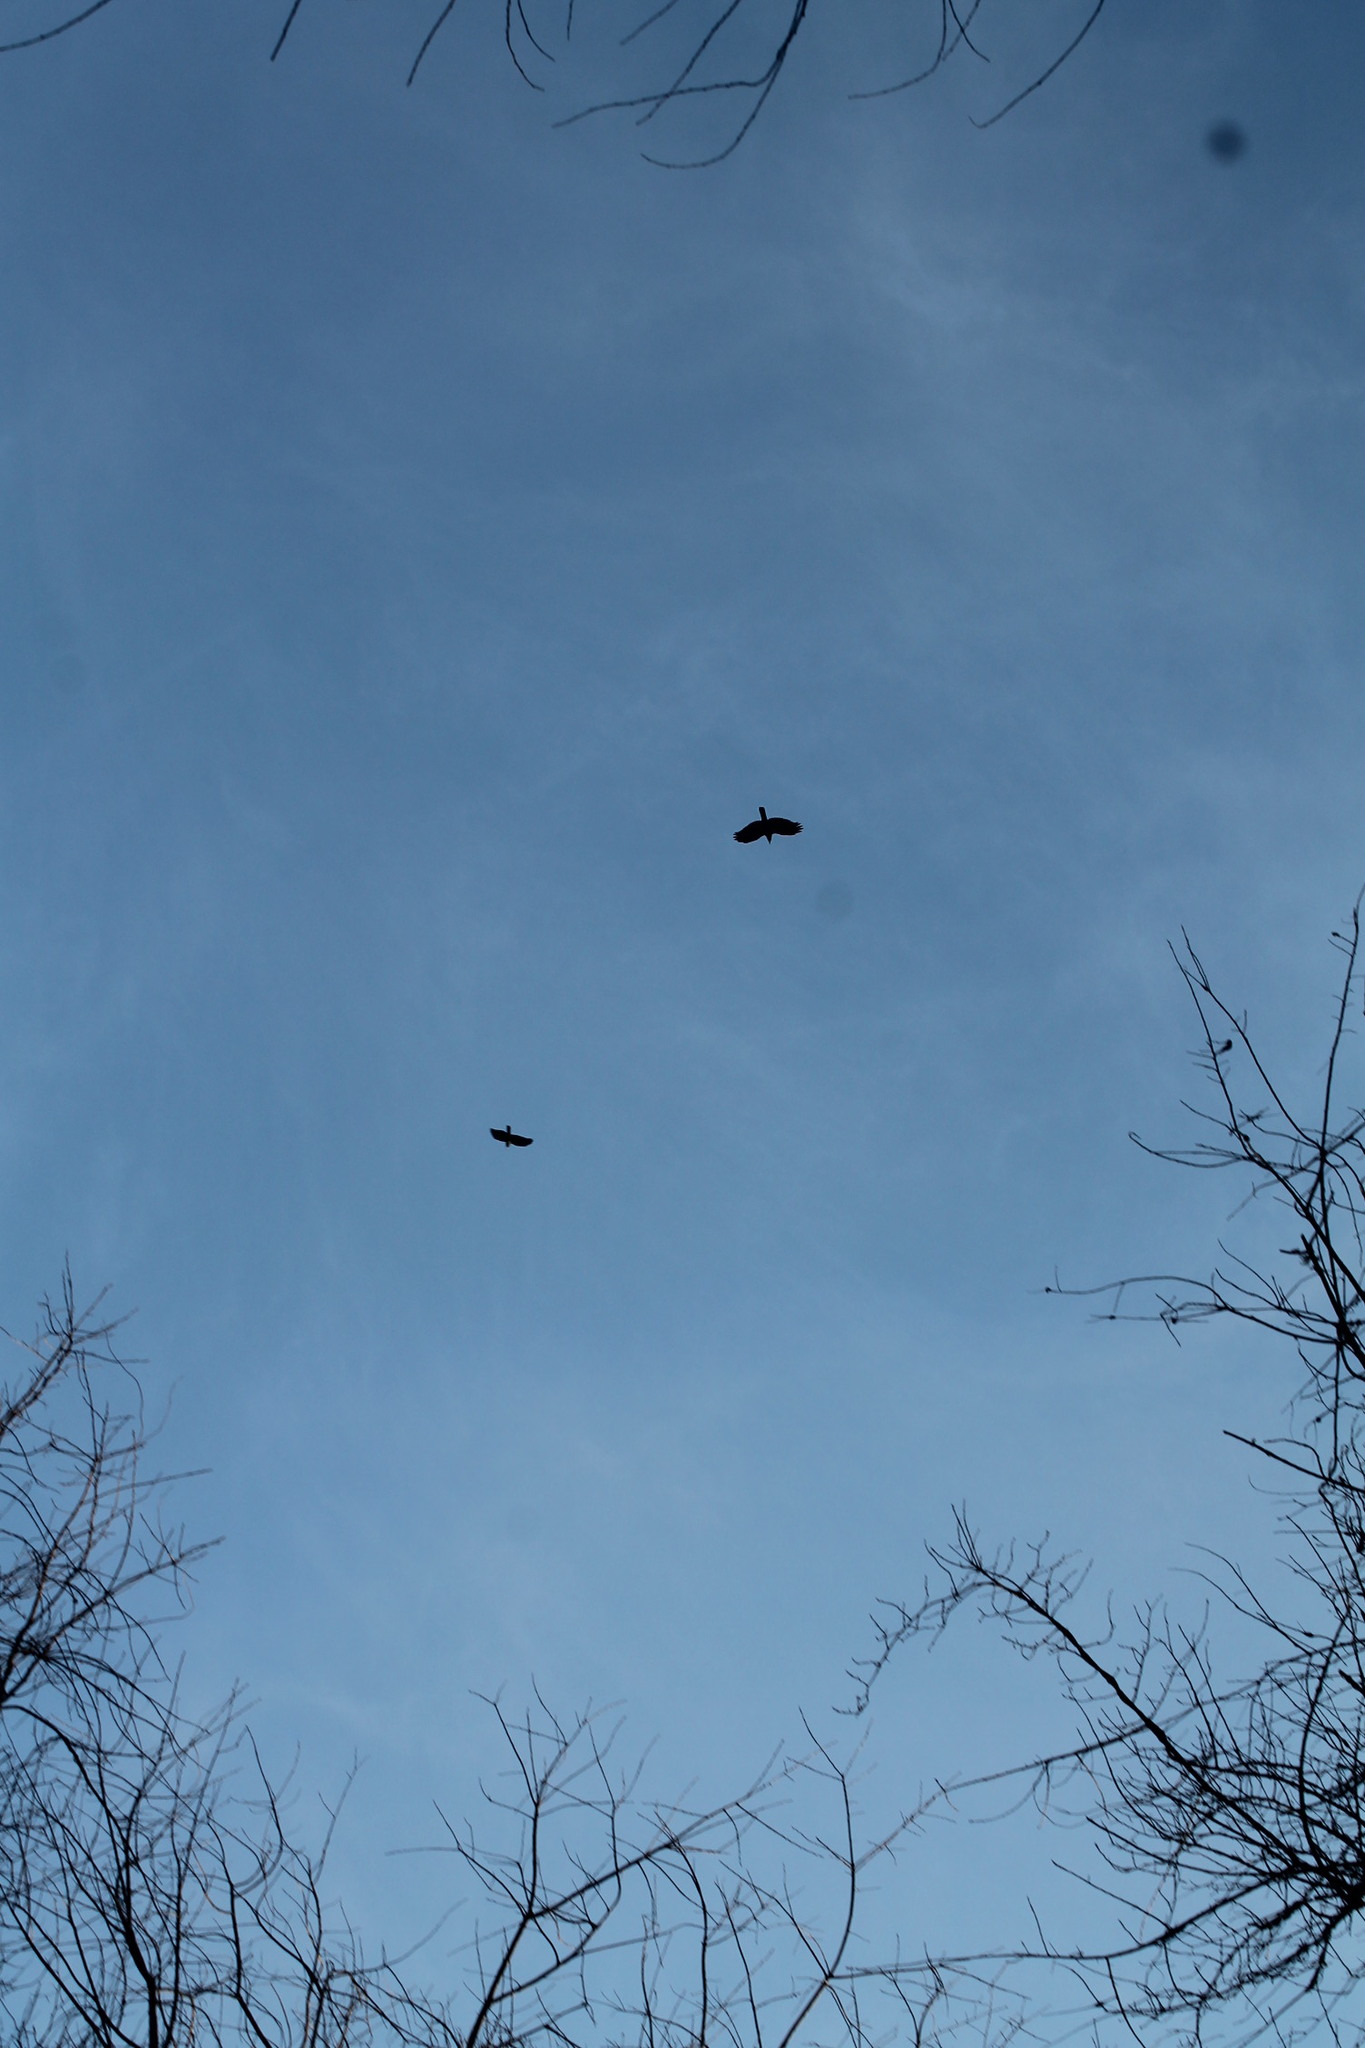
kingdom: Animalia
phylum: Chordata
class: Aves
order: Passeriformes
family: Corvidae
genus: Corvus
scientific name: Corvus ossifragus
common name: Fish crow
